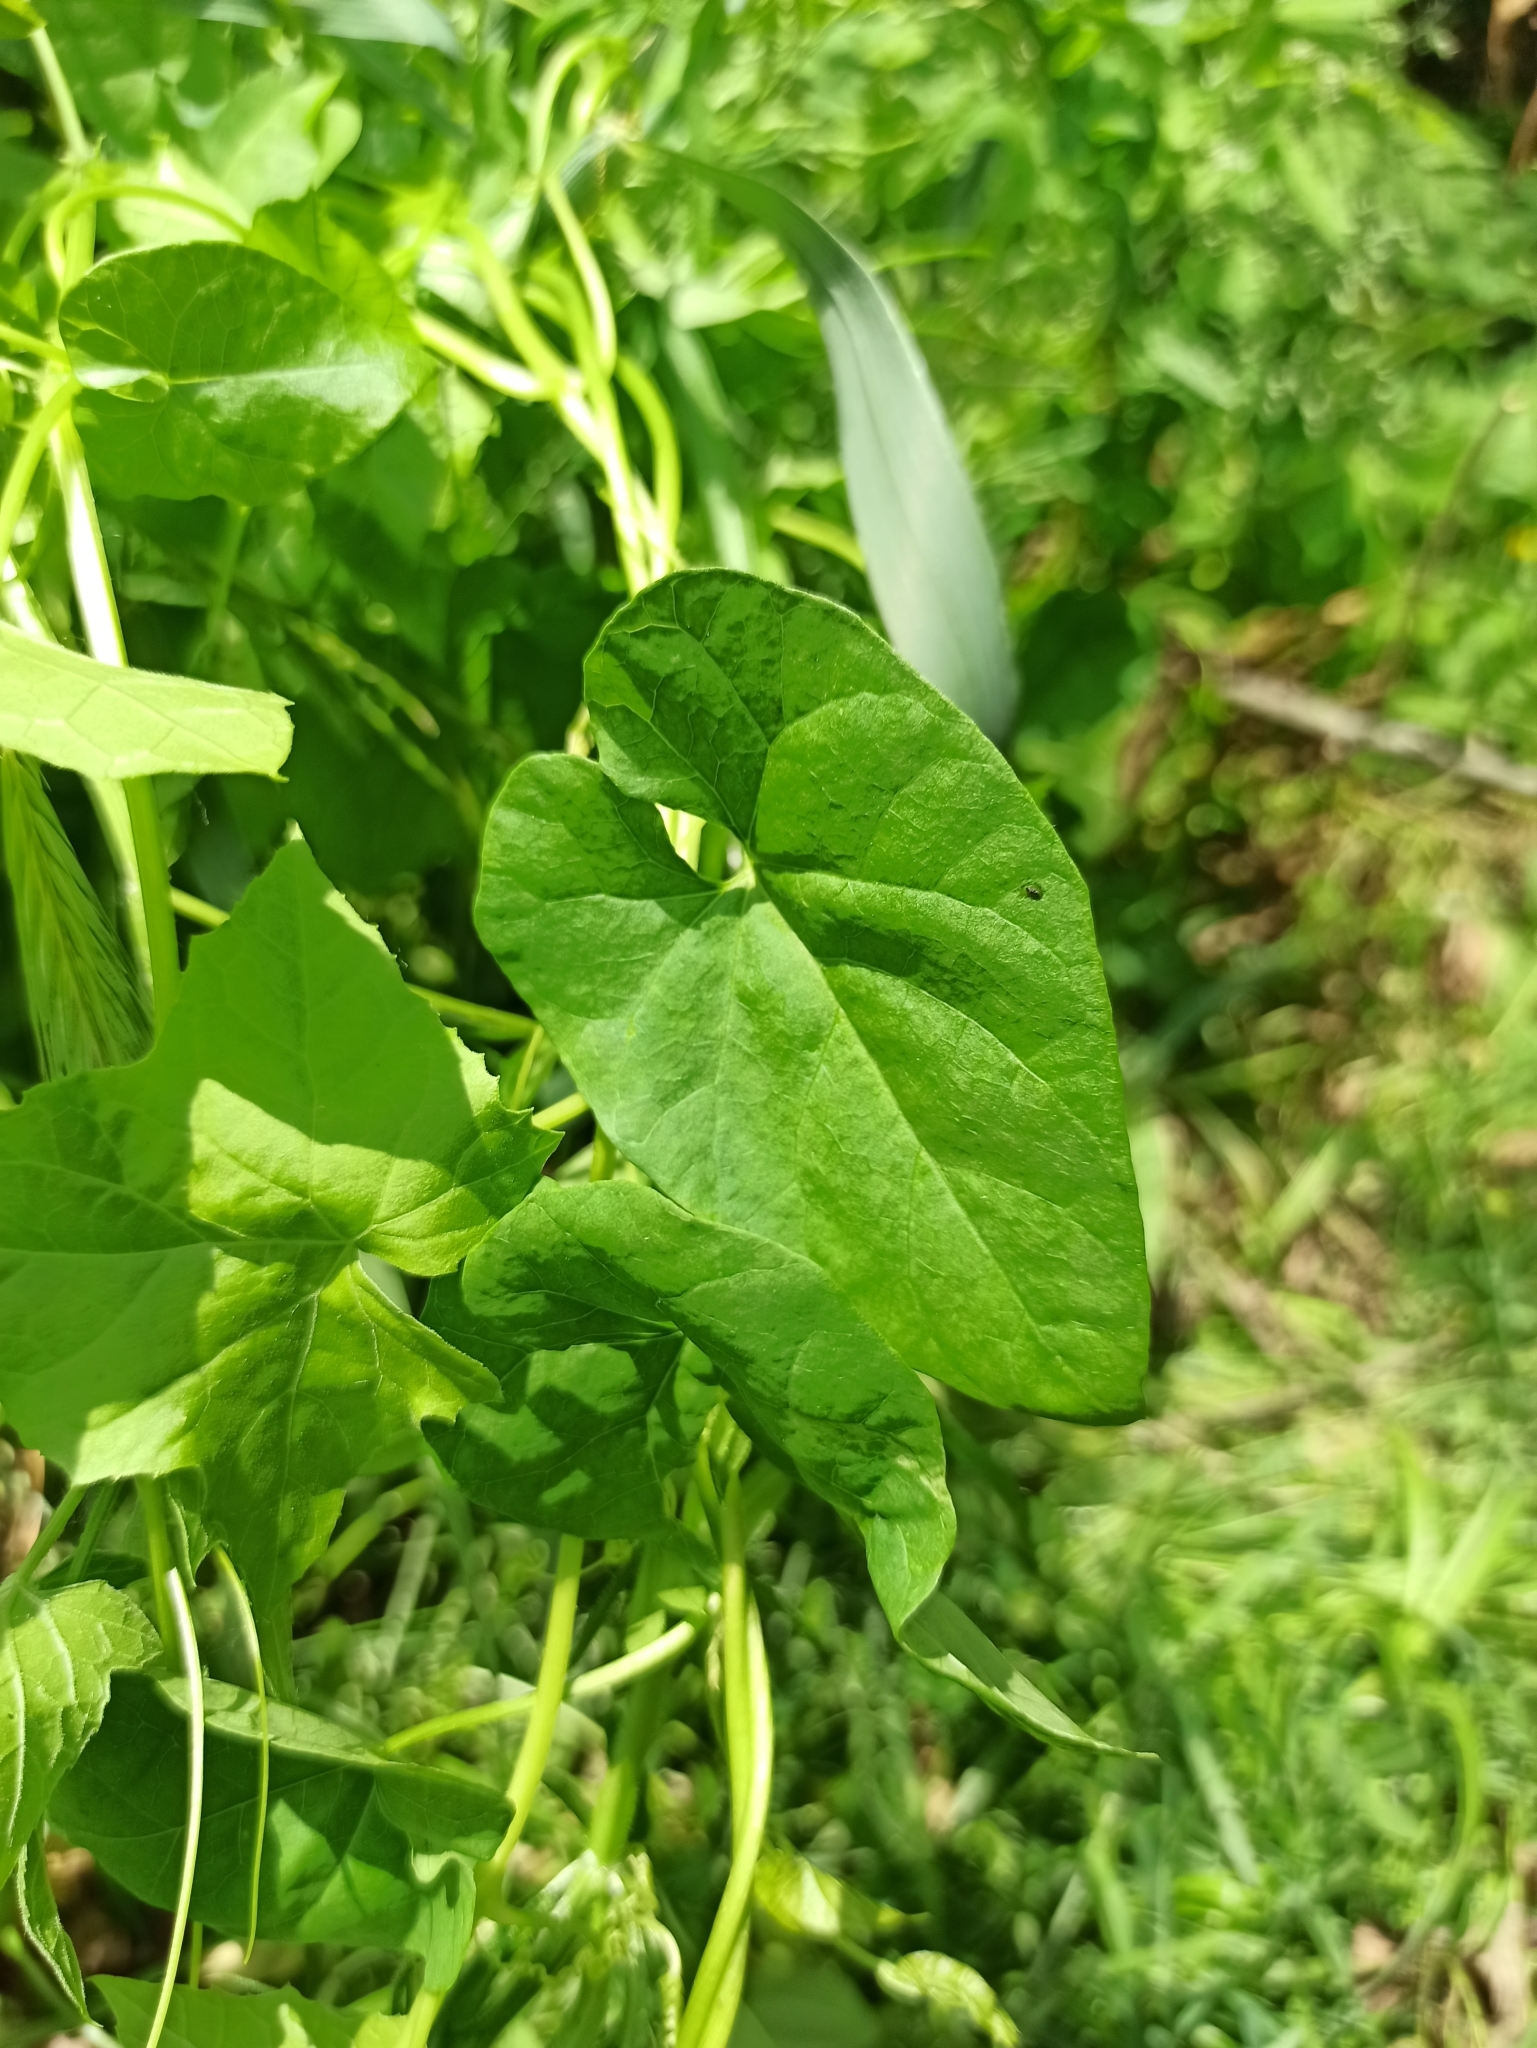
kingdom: Plantae
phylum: Tracheophyta
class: Magnoliopsida
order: Solanales
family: Convolvulaceae
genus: Calystegia
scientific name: Calystegia sepium
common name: Hedge bindweed
